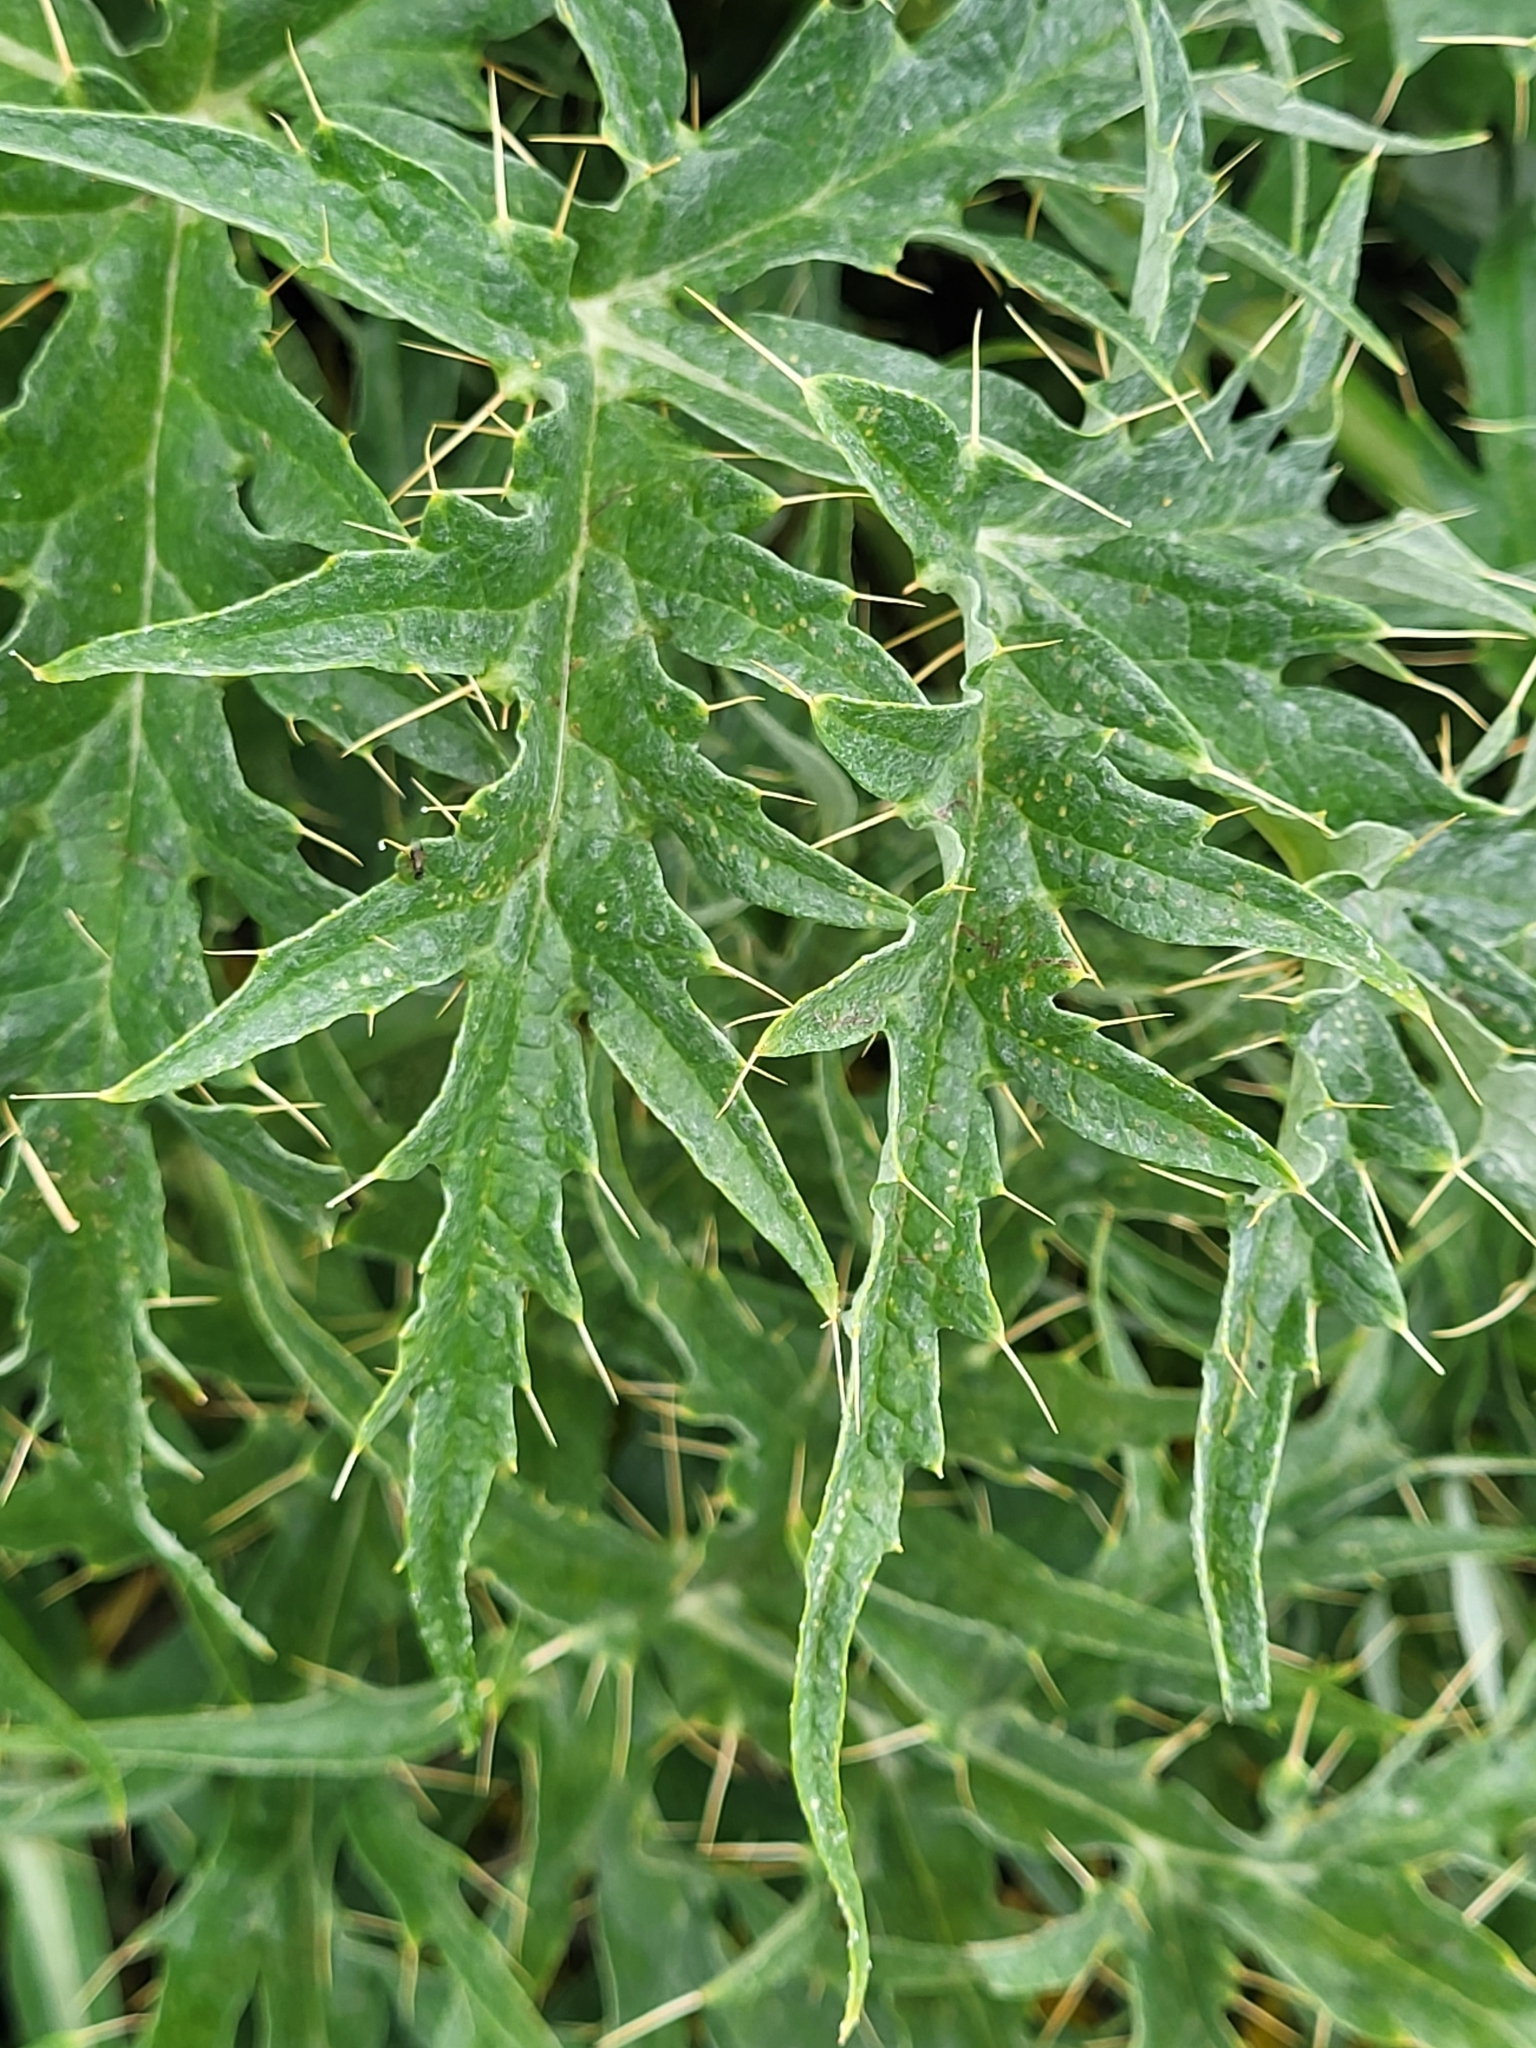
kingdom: Plantae
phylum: Tracheophyta
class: Magnoliopsida
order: Asterales
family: Asteraceae
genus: Cynara
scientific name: Cynara cardunculus
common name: Globe artichoke
